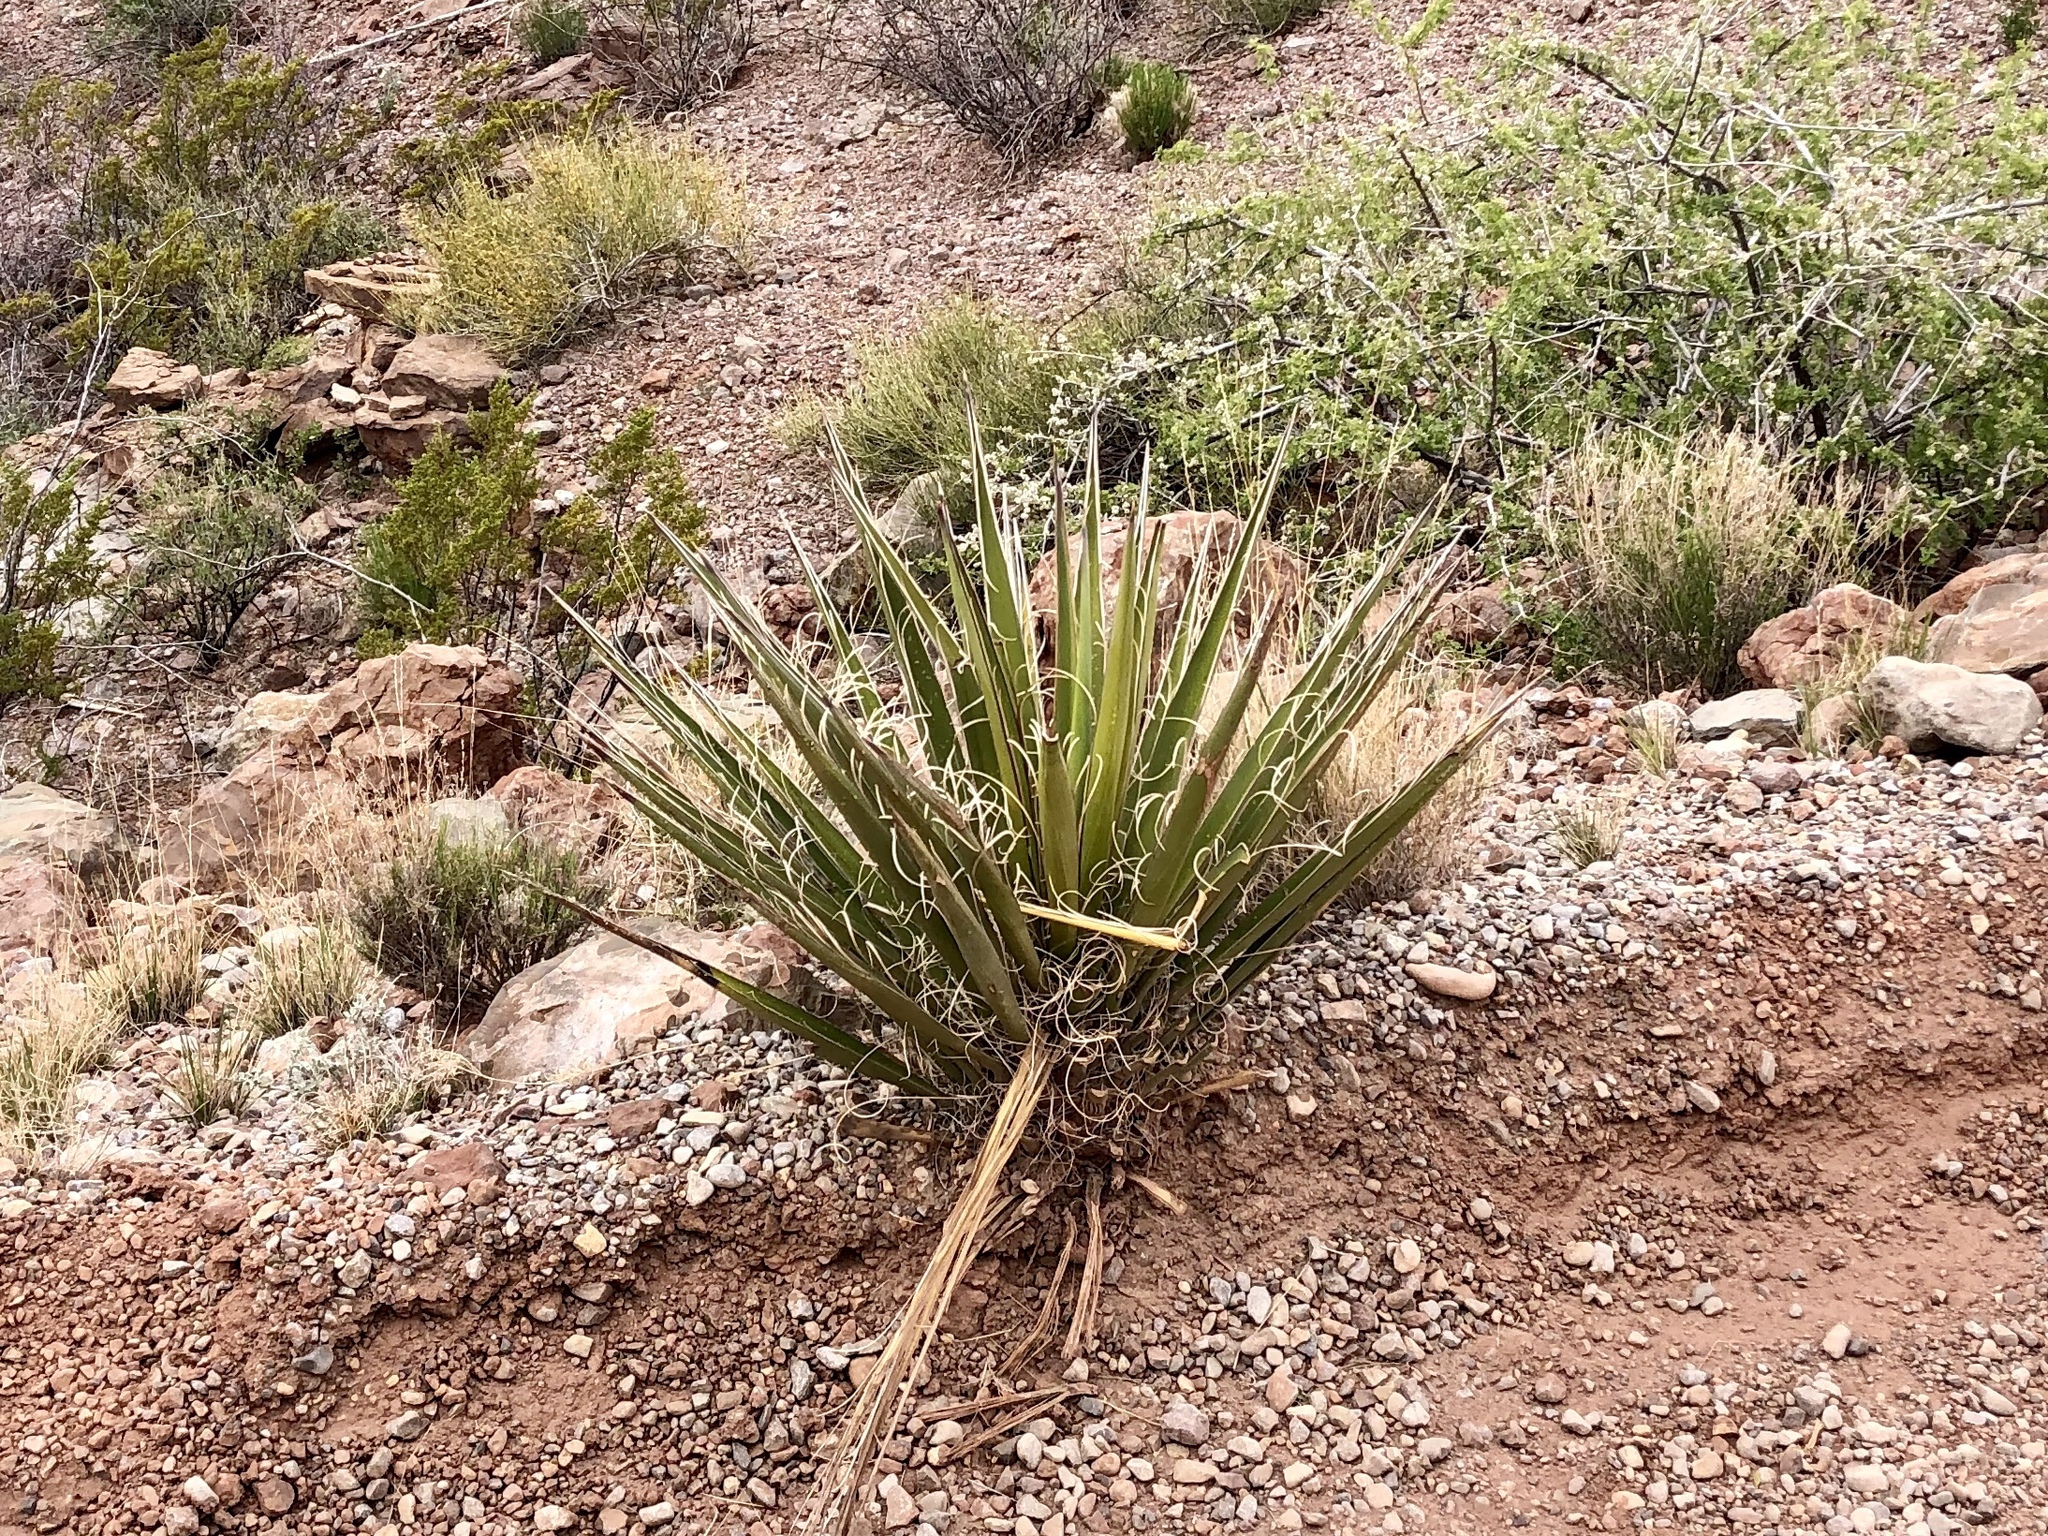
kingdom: Plantae
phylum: Tracheophyta
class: Liliopsida
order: Asparagales
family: Asparagaceae
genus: Yucca
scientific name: Yucca baccata
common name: Banana yucca
